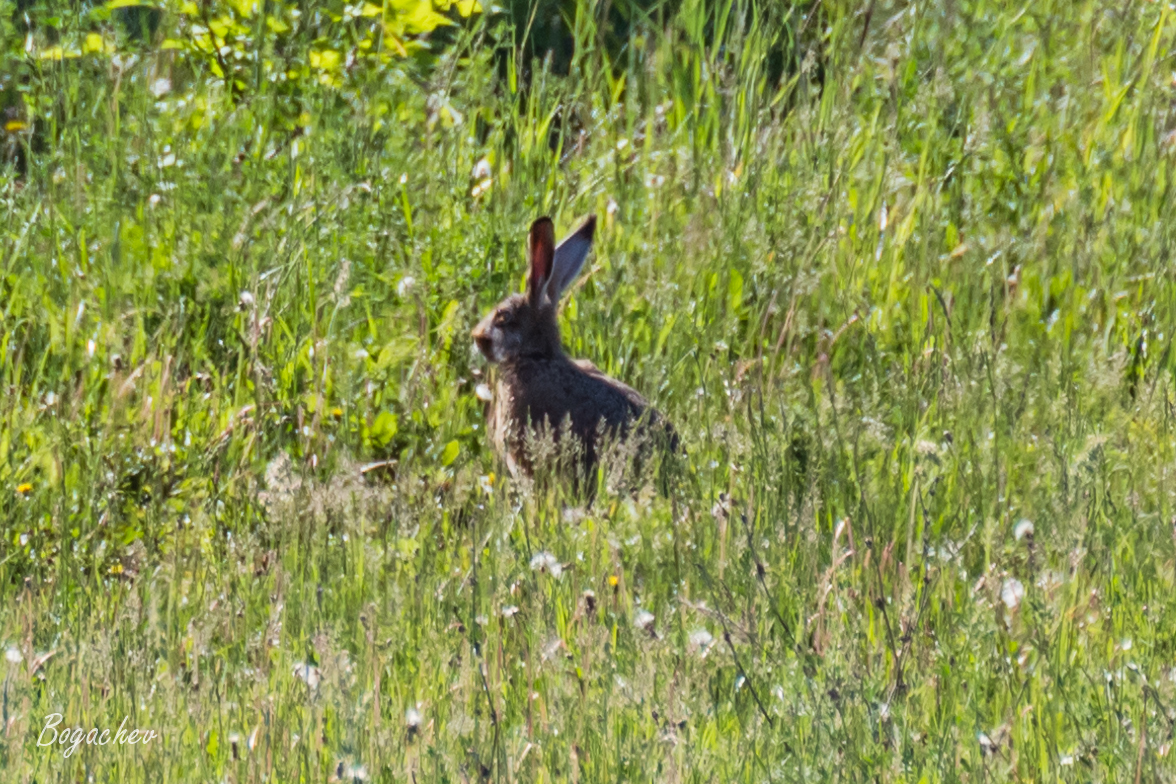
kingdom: Animalia
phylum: Chordata
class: Mammalia
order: Lagomorpha
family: Leporidae
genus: Lepus
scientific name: Lepus europaeus
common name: European hare
